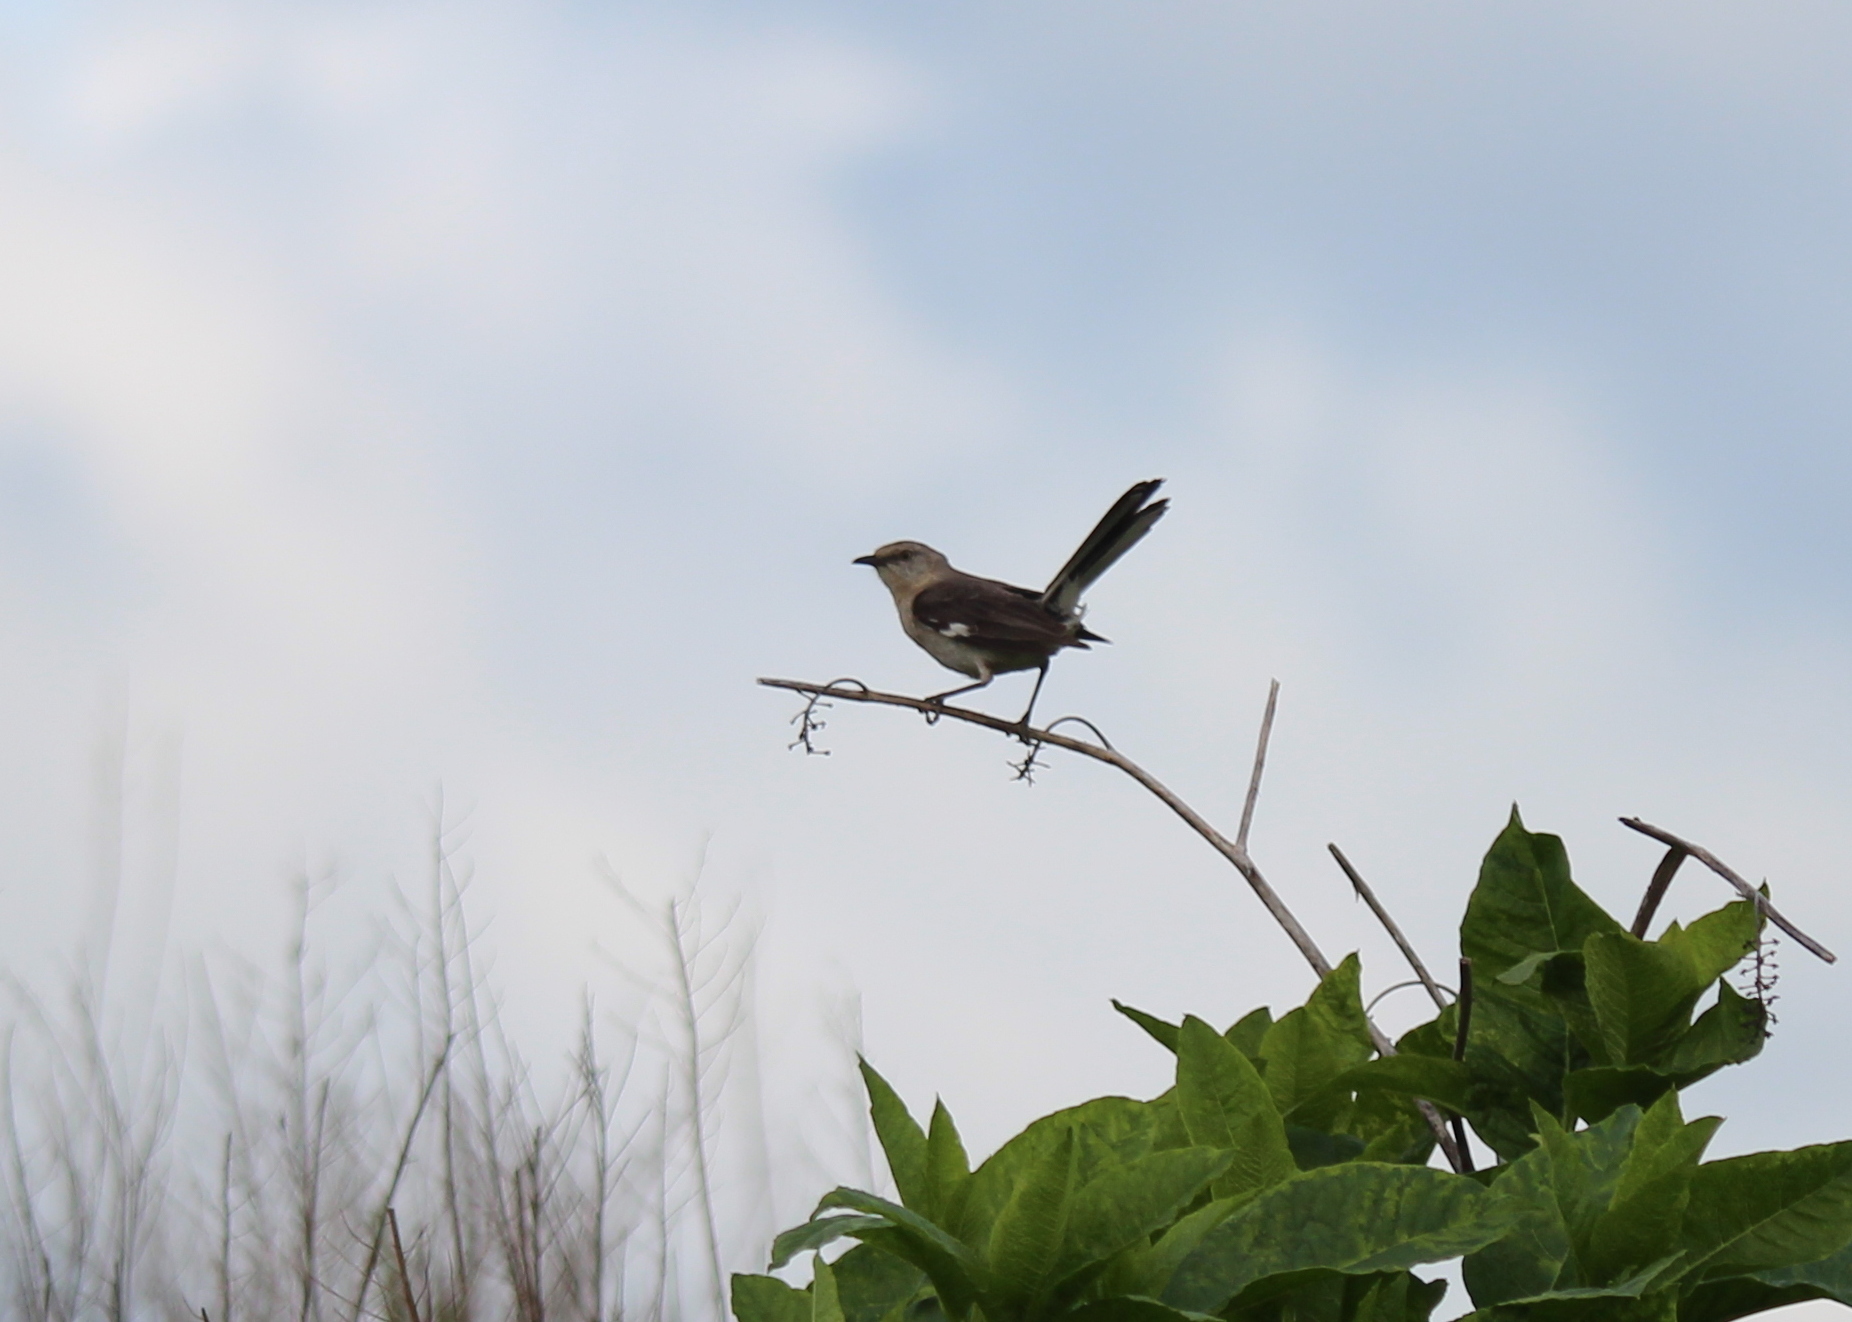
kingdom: Animalia
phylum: Chordata
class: Aves
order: Passeriformes
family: Mimidae
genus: Mimus
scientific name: Mimus polyglottos
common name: Northern mockingbird
